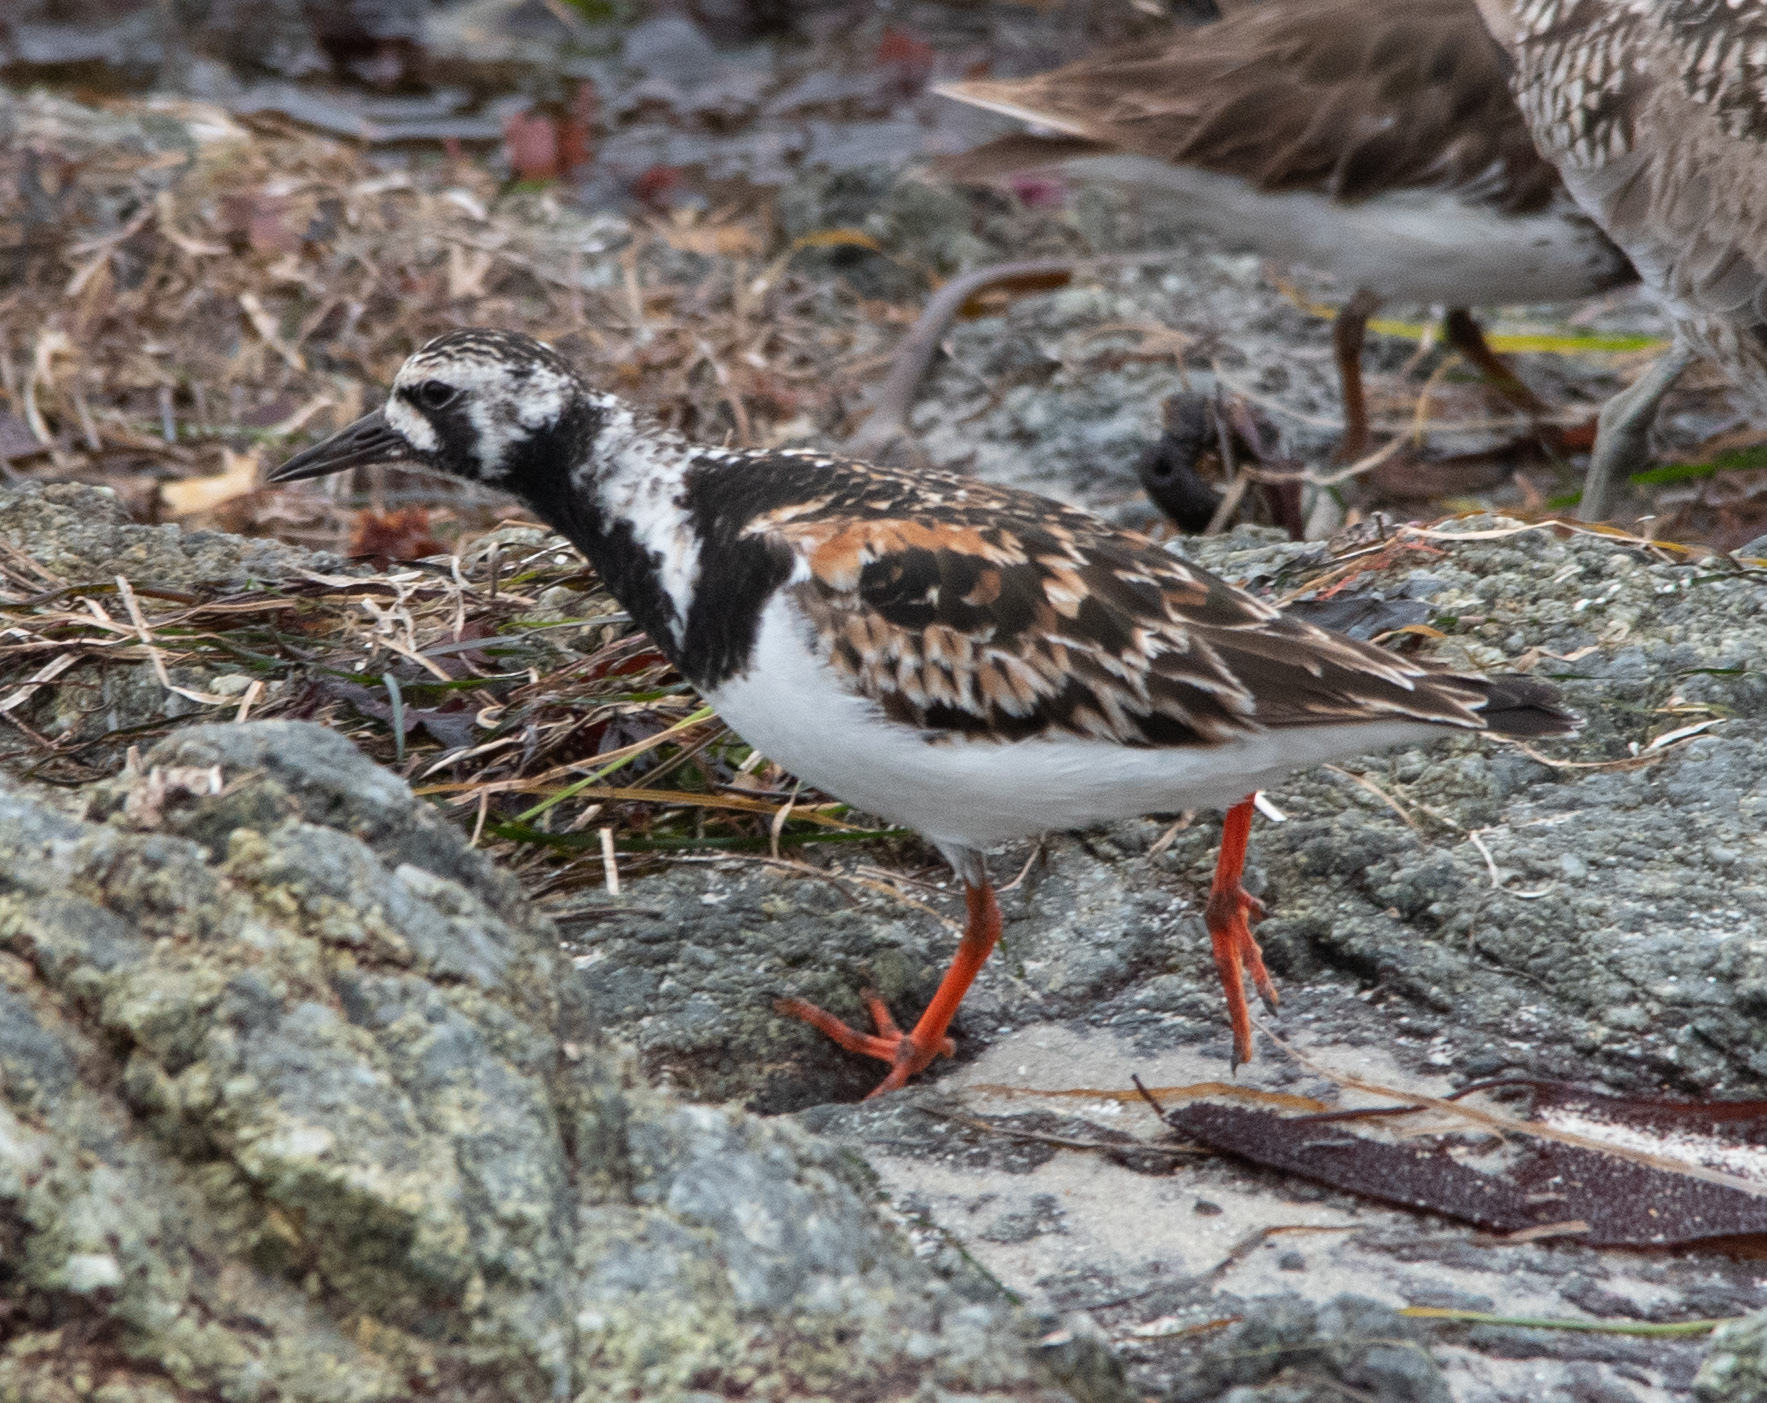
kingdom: Animalia
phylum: Chordata
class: Aves
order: Charadriiformes
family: Scolopacidae
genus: Arenaria
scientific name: Arenaria interpres
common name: Ruddy turnstone
